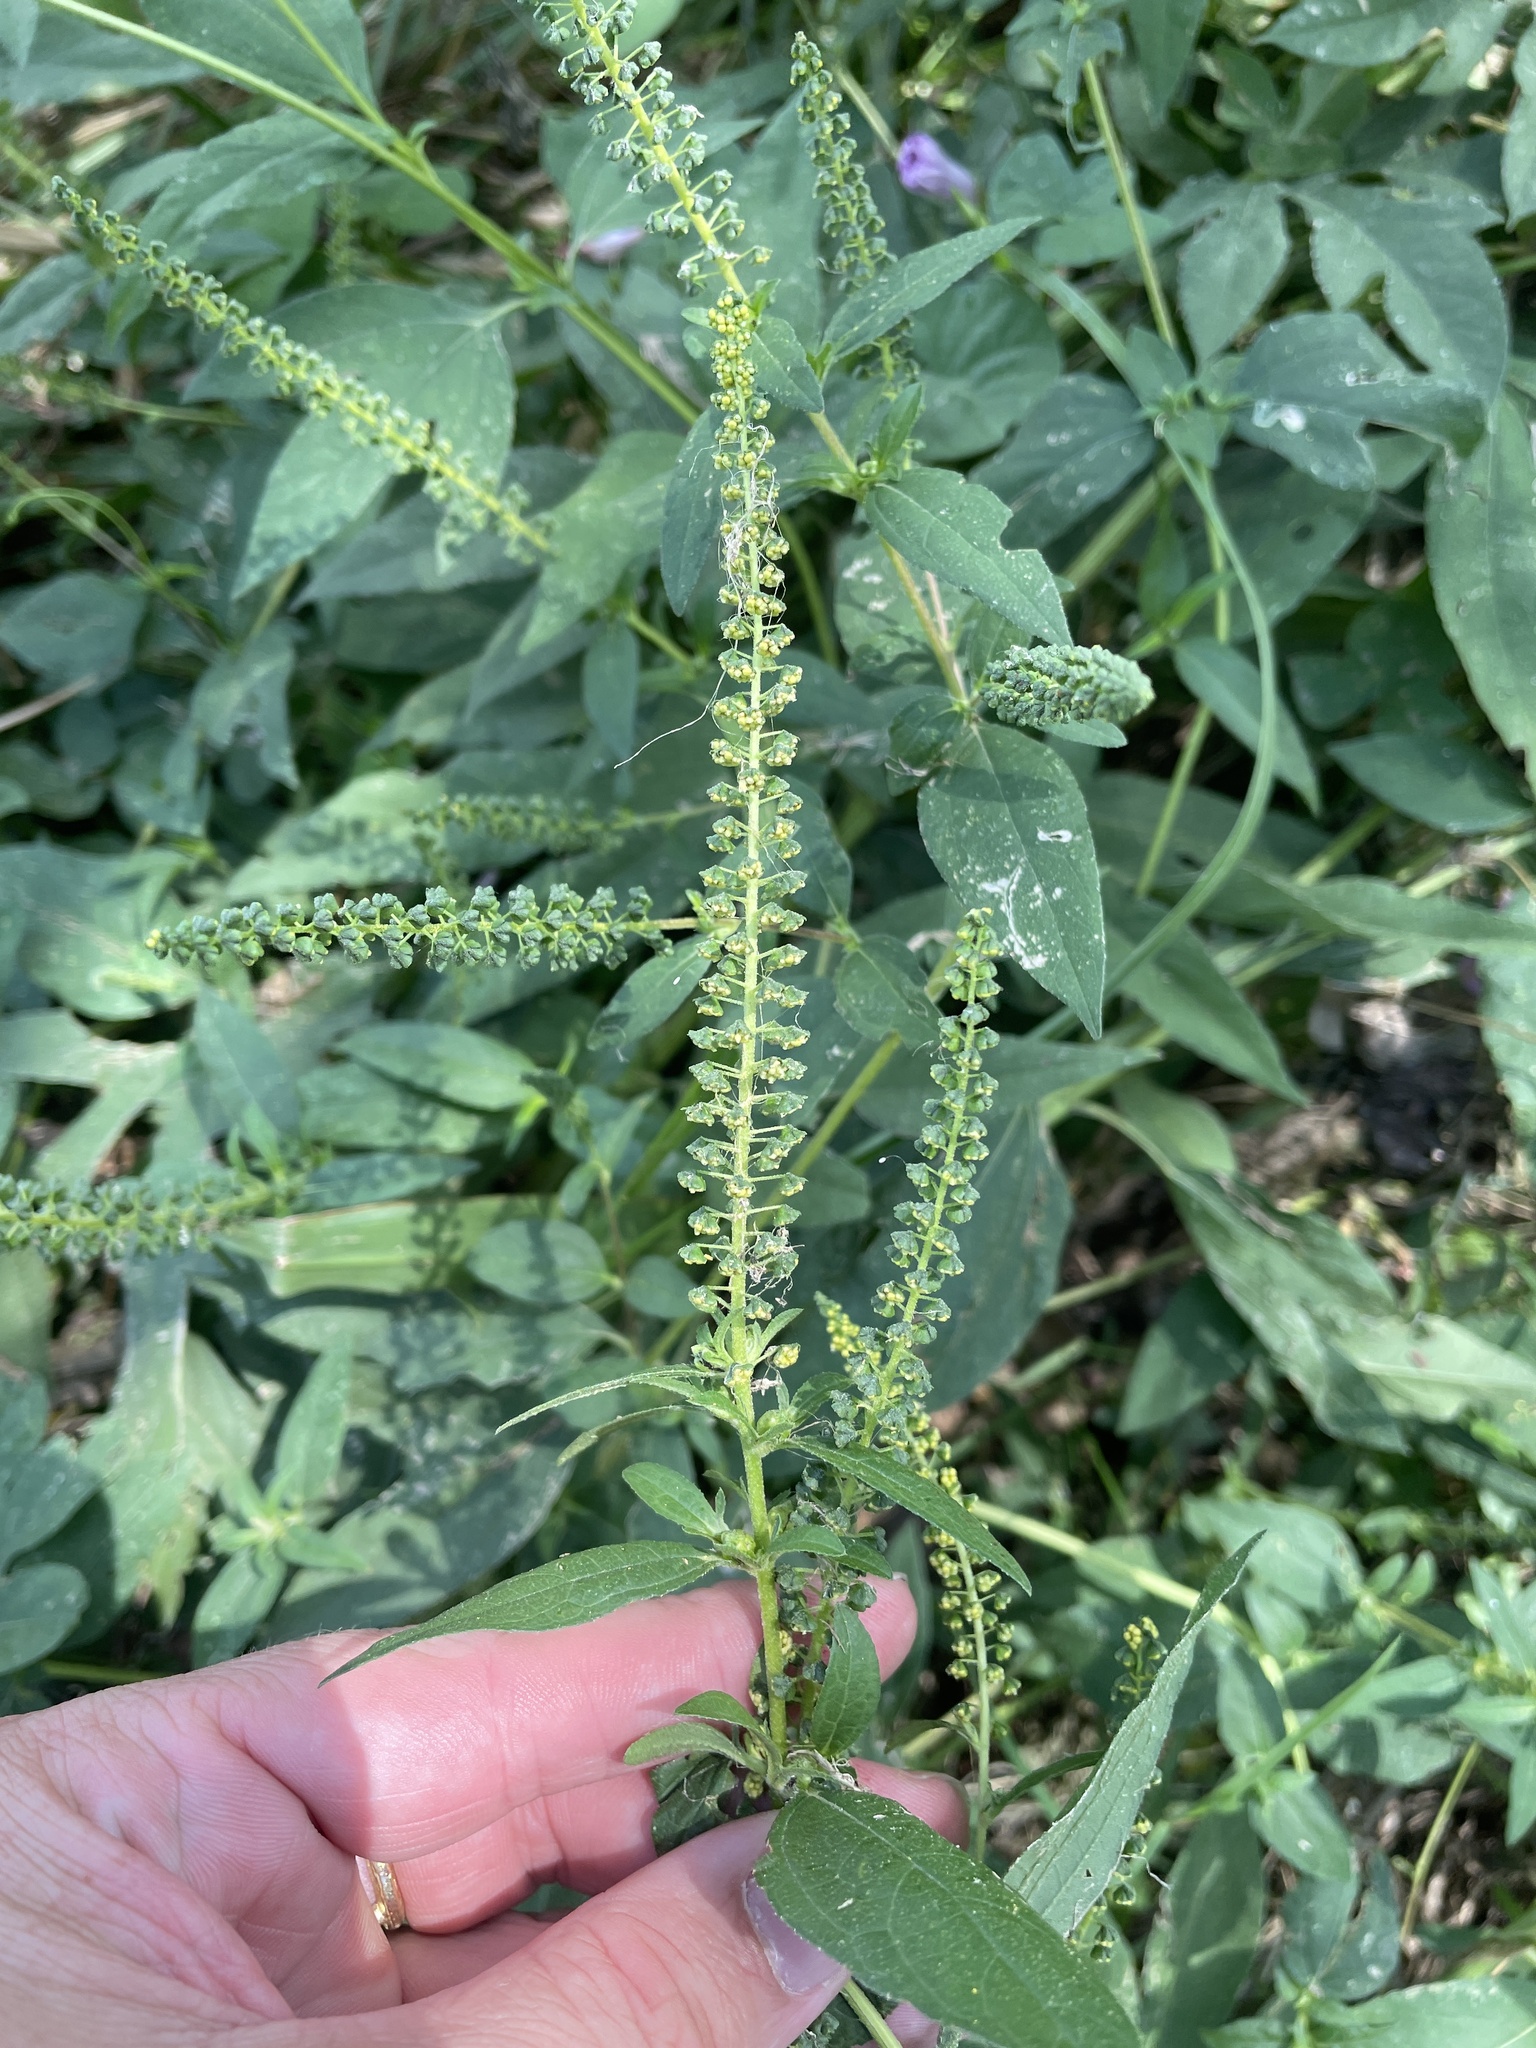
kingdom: Plantae
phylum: Tracheophyta
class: Magnoliopsida
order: Asterales
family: Asteraceae
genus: Ambrosia
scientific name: Ambrosia trifida
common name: Giant ragweed
